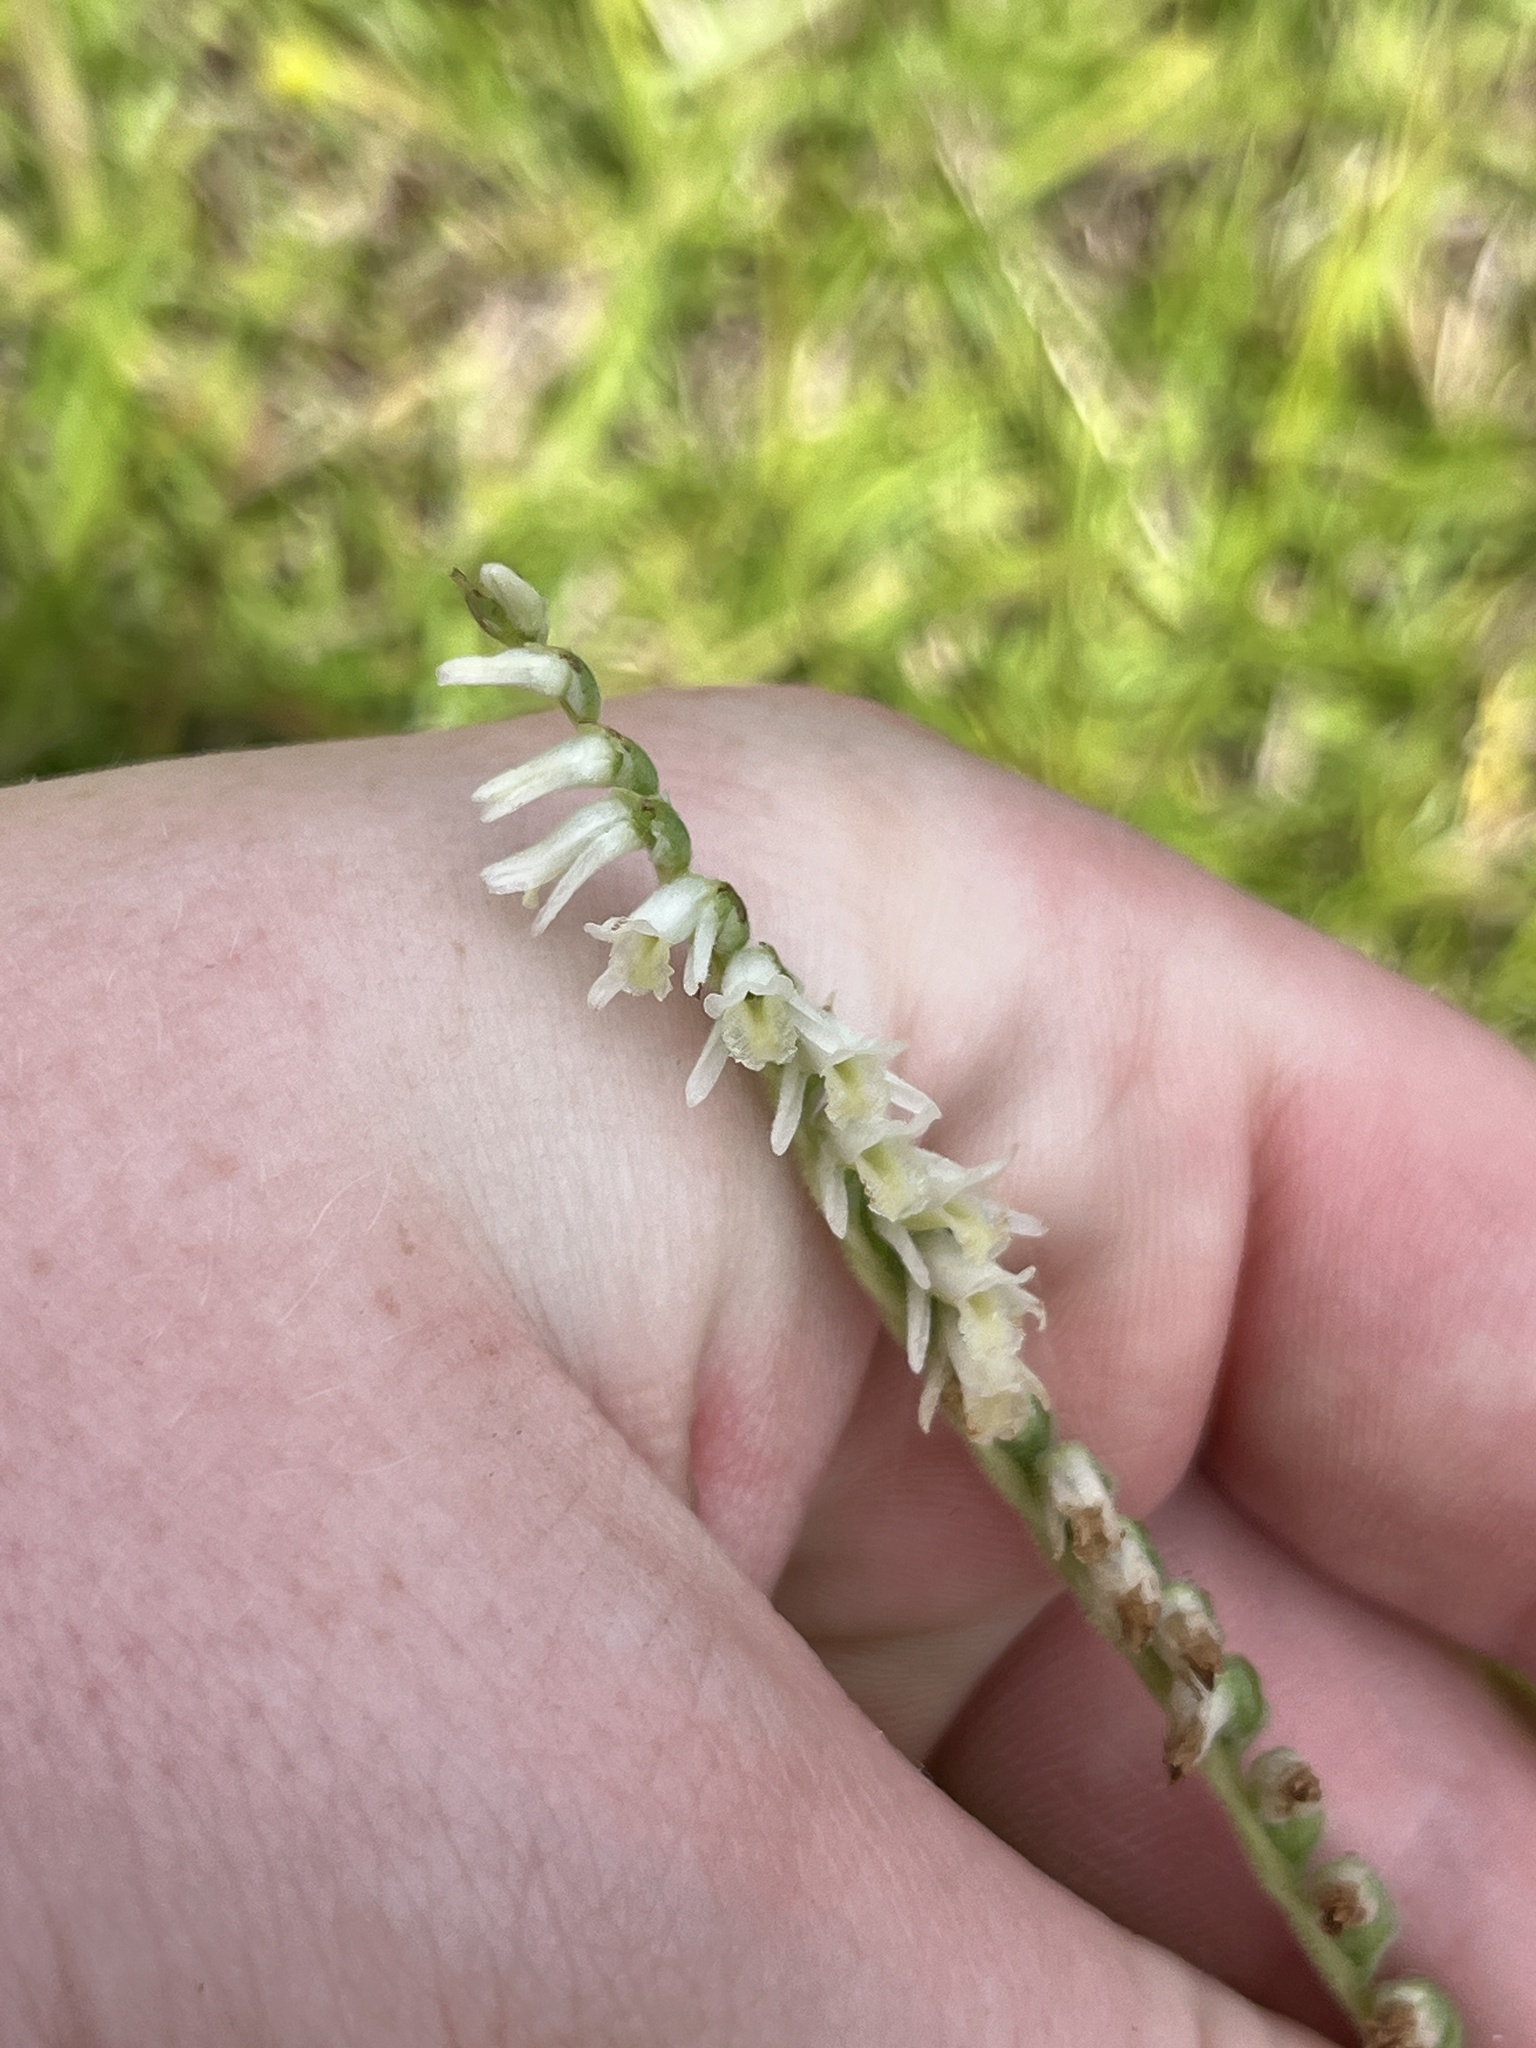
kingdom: Plantae
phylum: Tracheophyta
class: Liliopsida
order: Asparagales
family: Orchidaceae
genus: Spiranthes
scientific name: Spiranthes vernalis
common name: Spring ladies'-tresses
